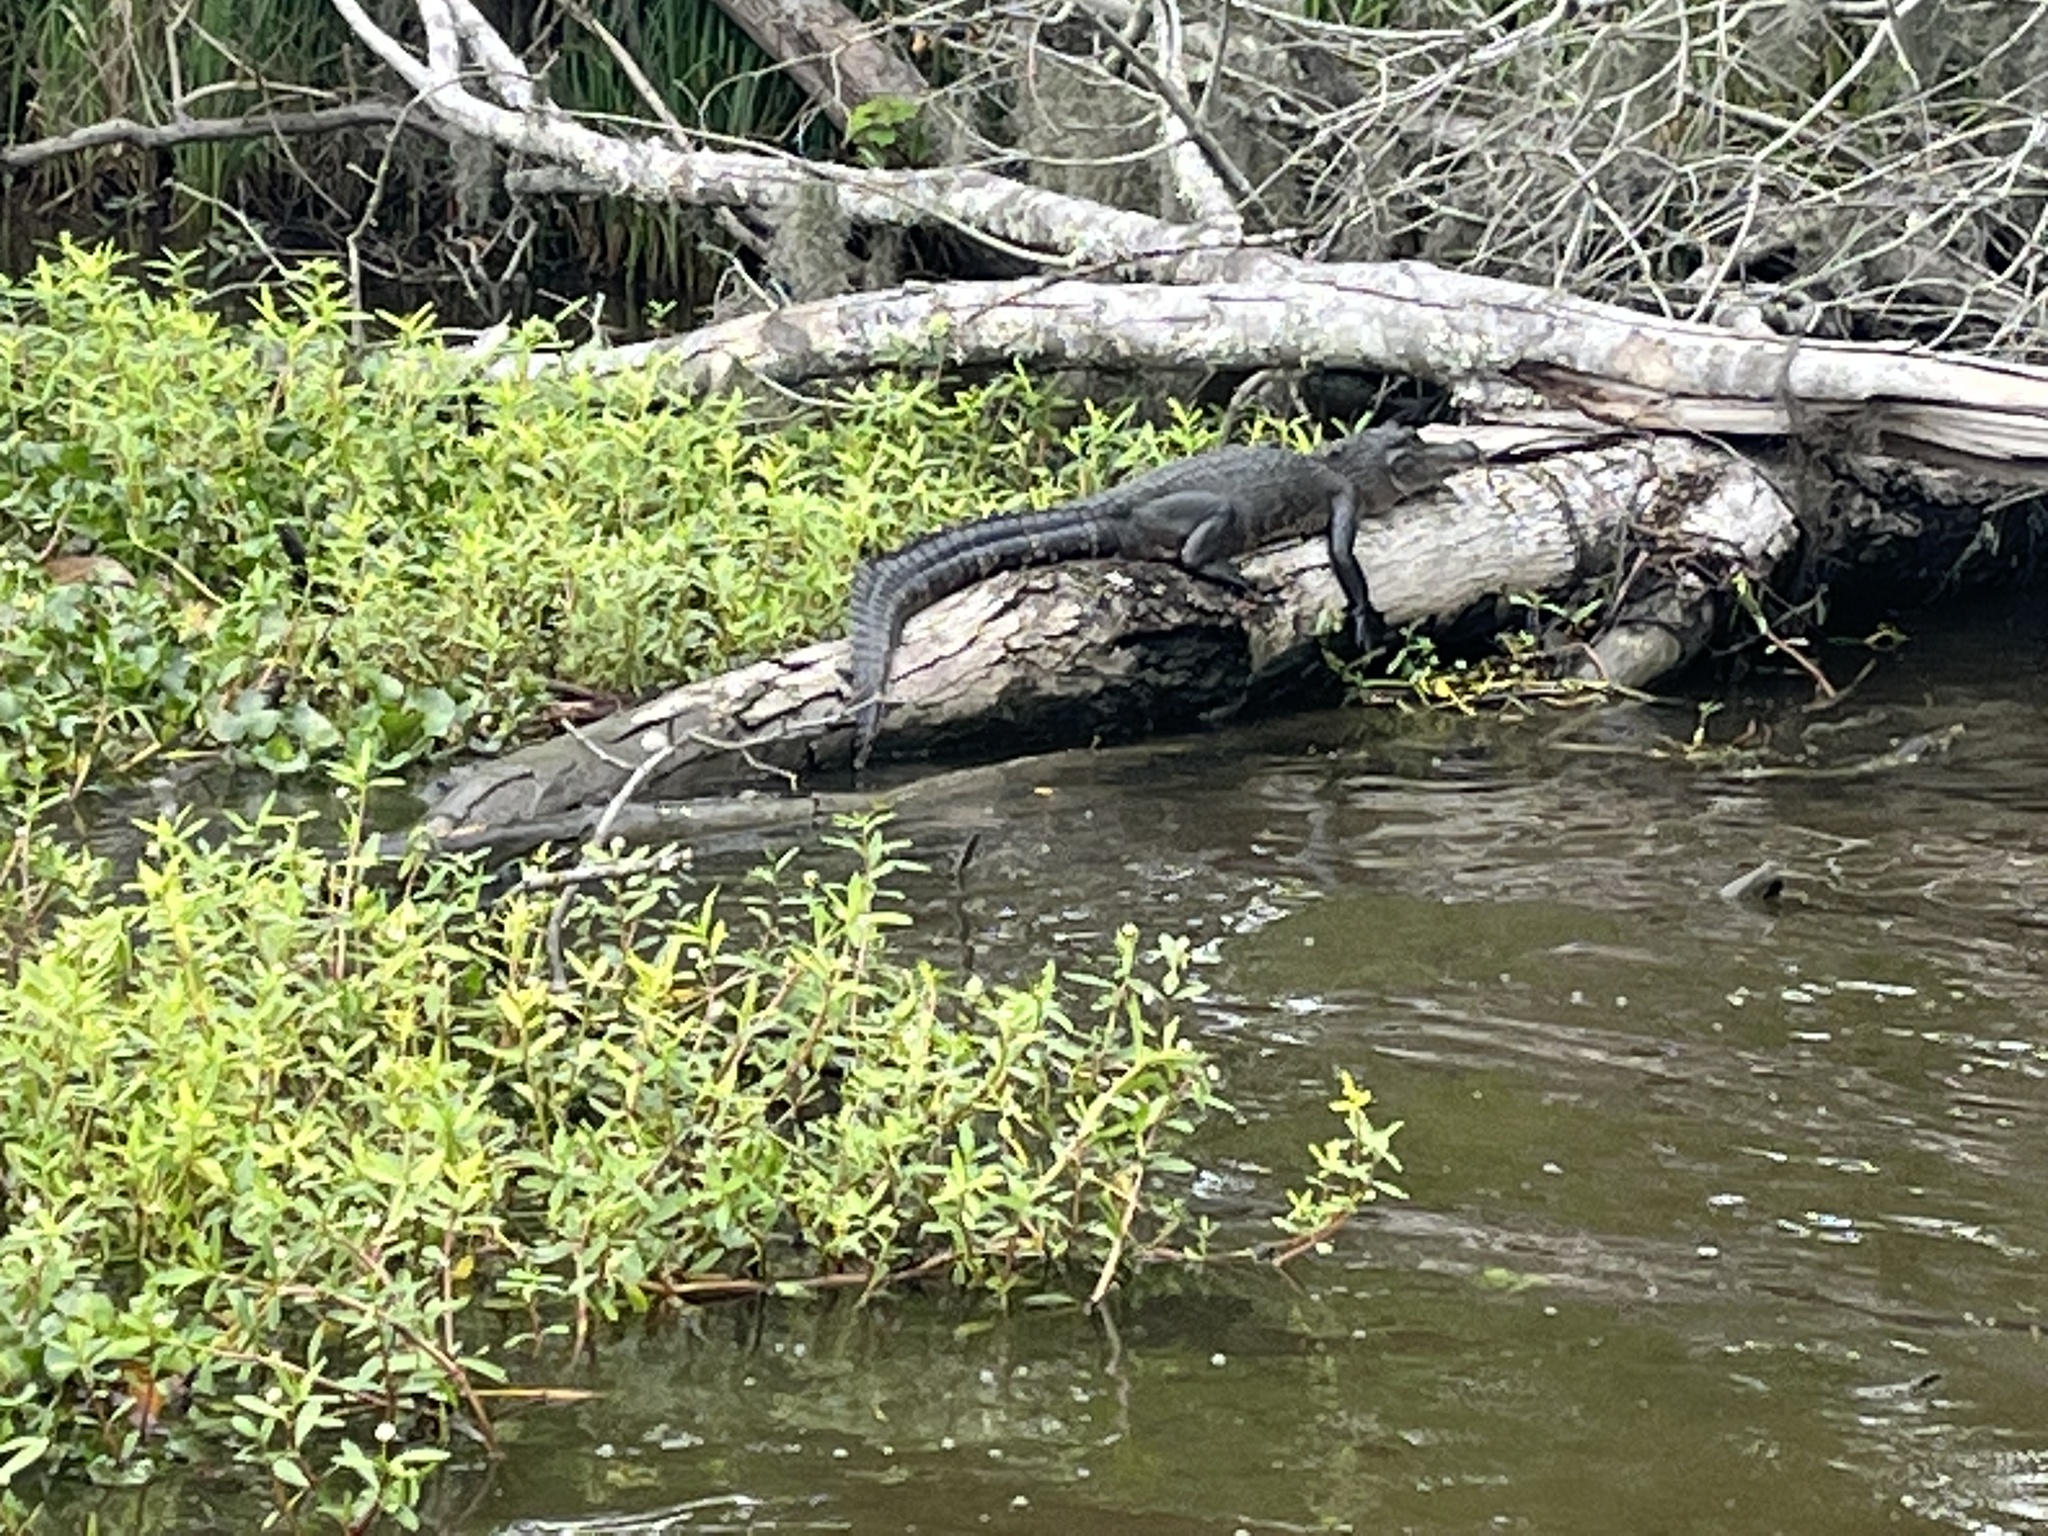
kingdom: Animalia
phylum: Chordata
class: Crocodylia
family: Alligatoridae
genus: Alligator
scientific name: Alligator mississippiensis
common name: American alligator
